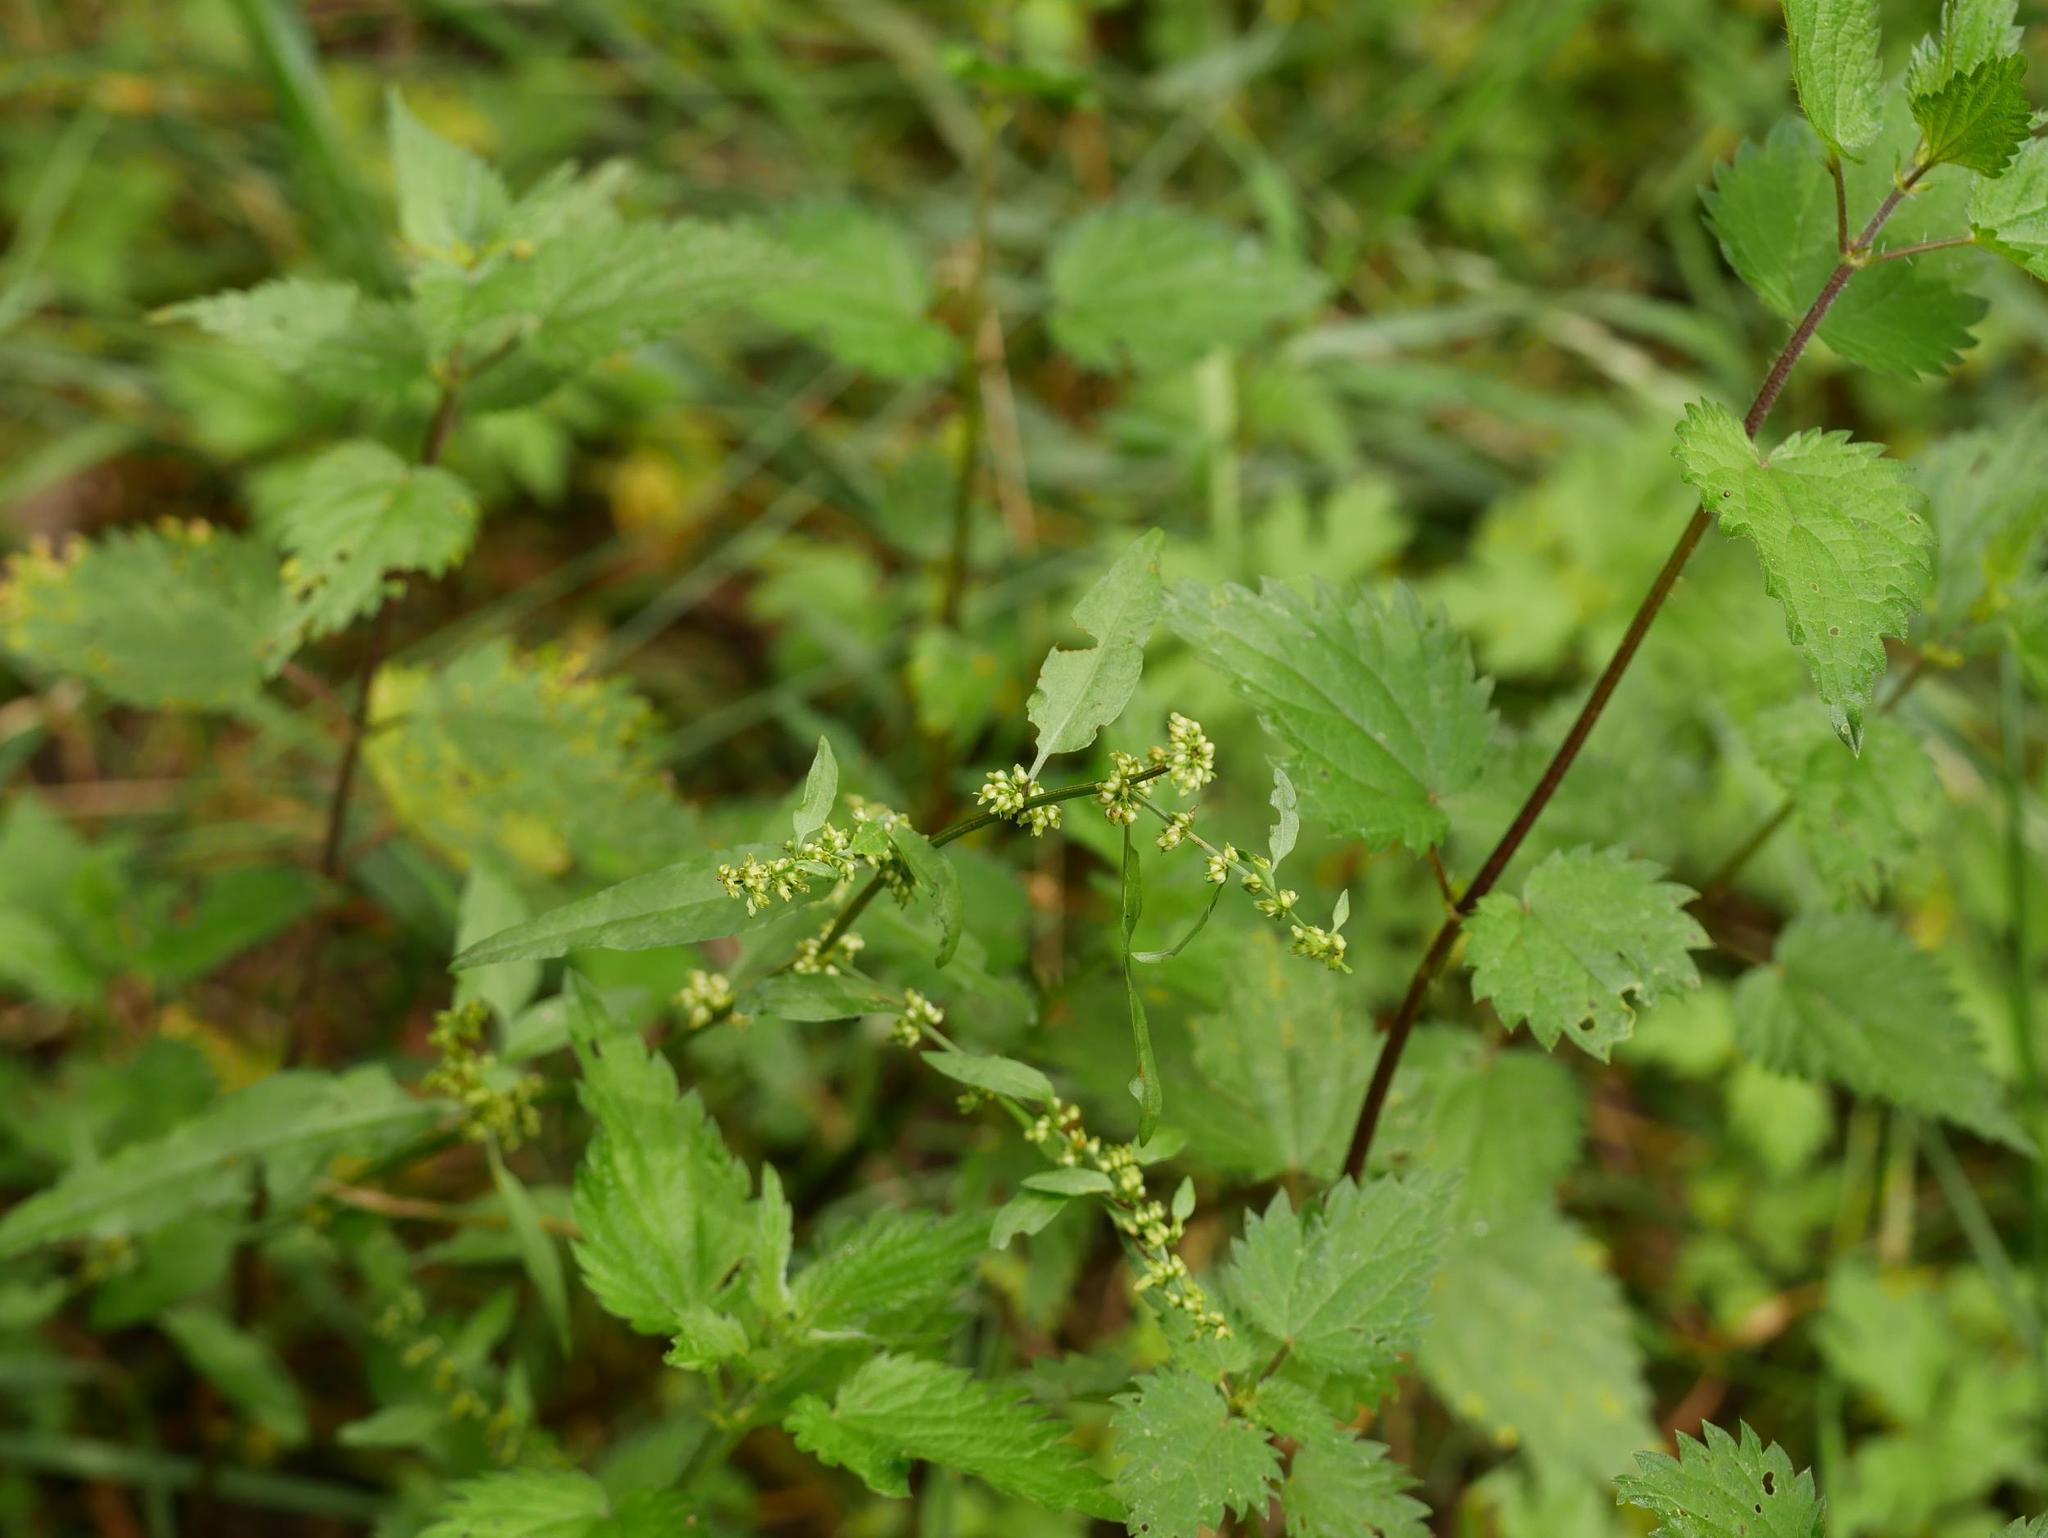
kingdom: Plantae
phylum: Tracheophyta
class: Magnoliopsida
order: Rosales
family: Urticaceae
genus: Urtica
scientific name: Urtica dioica
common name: Common nettle
